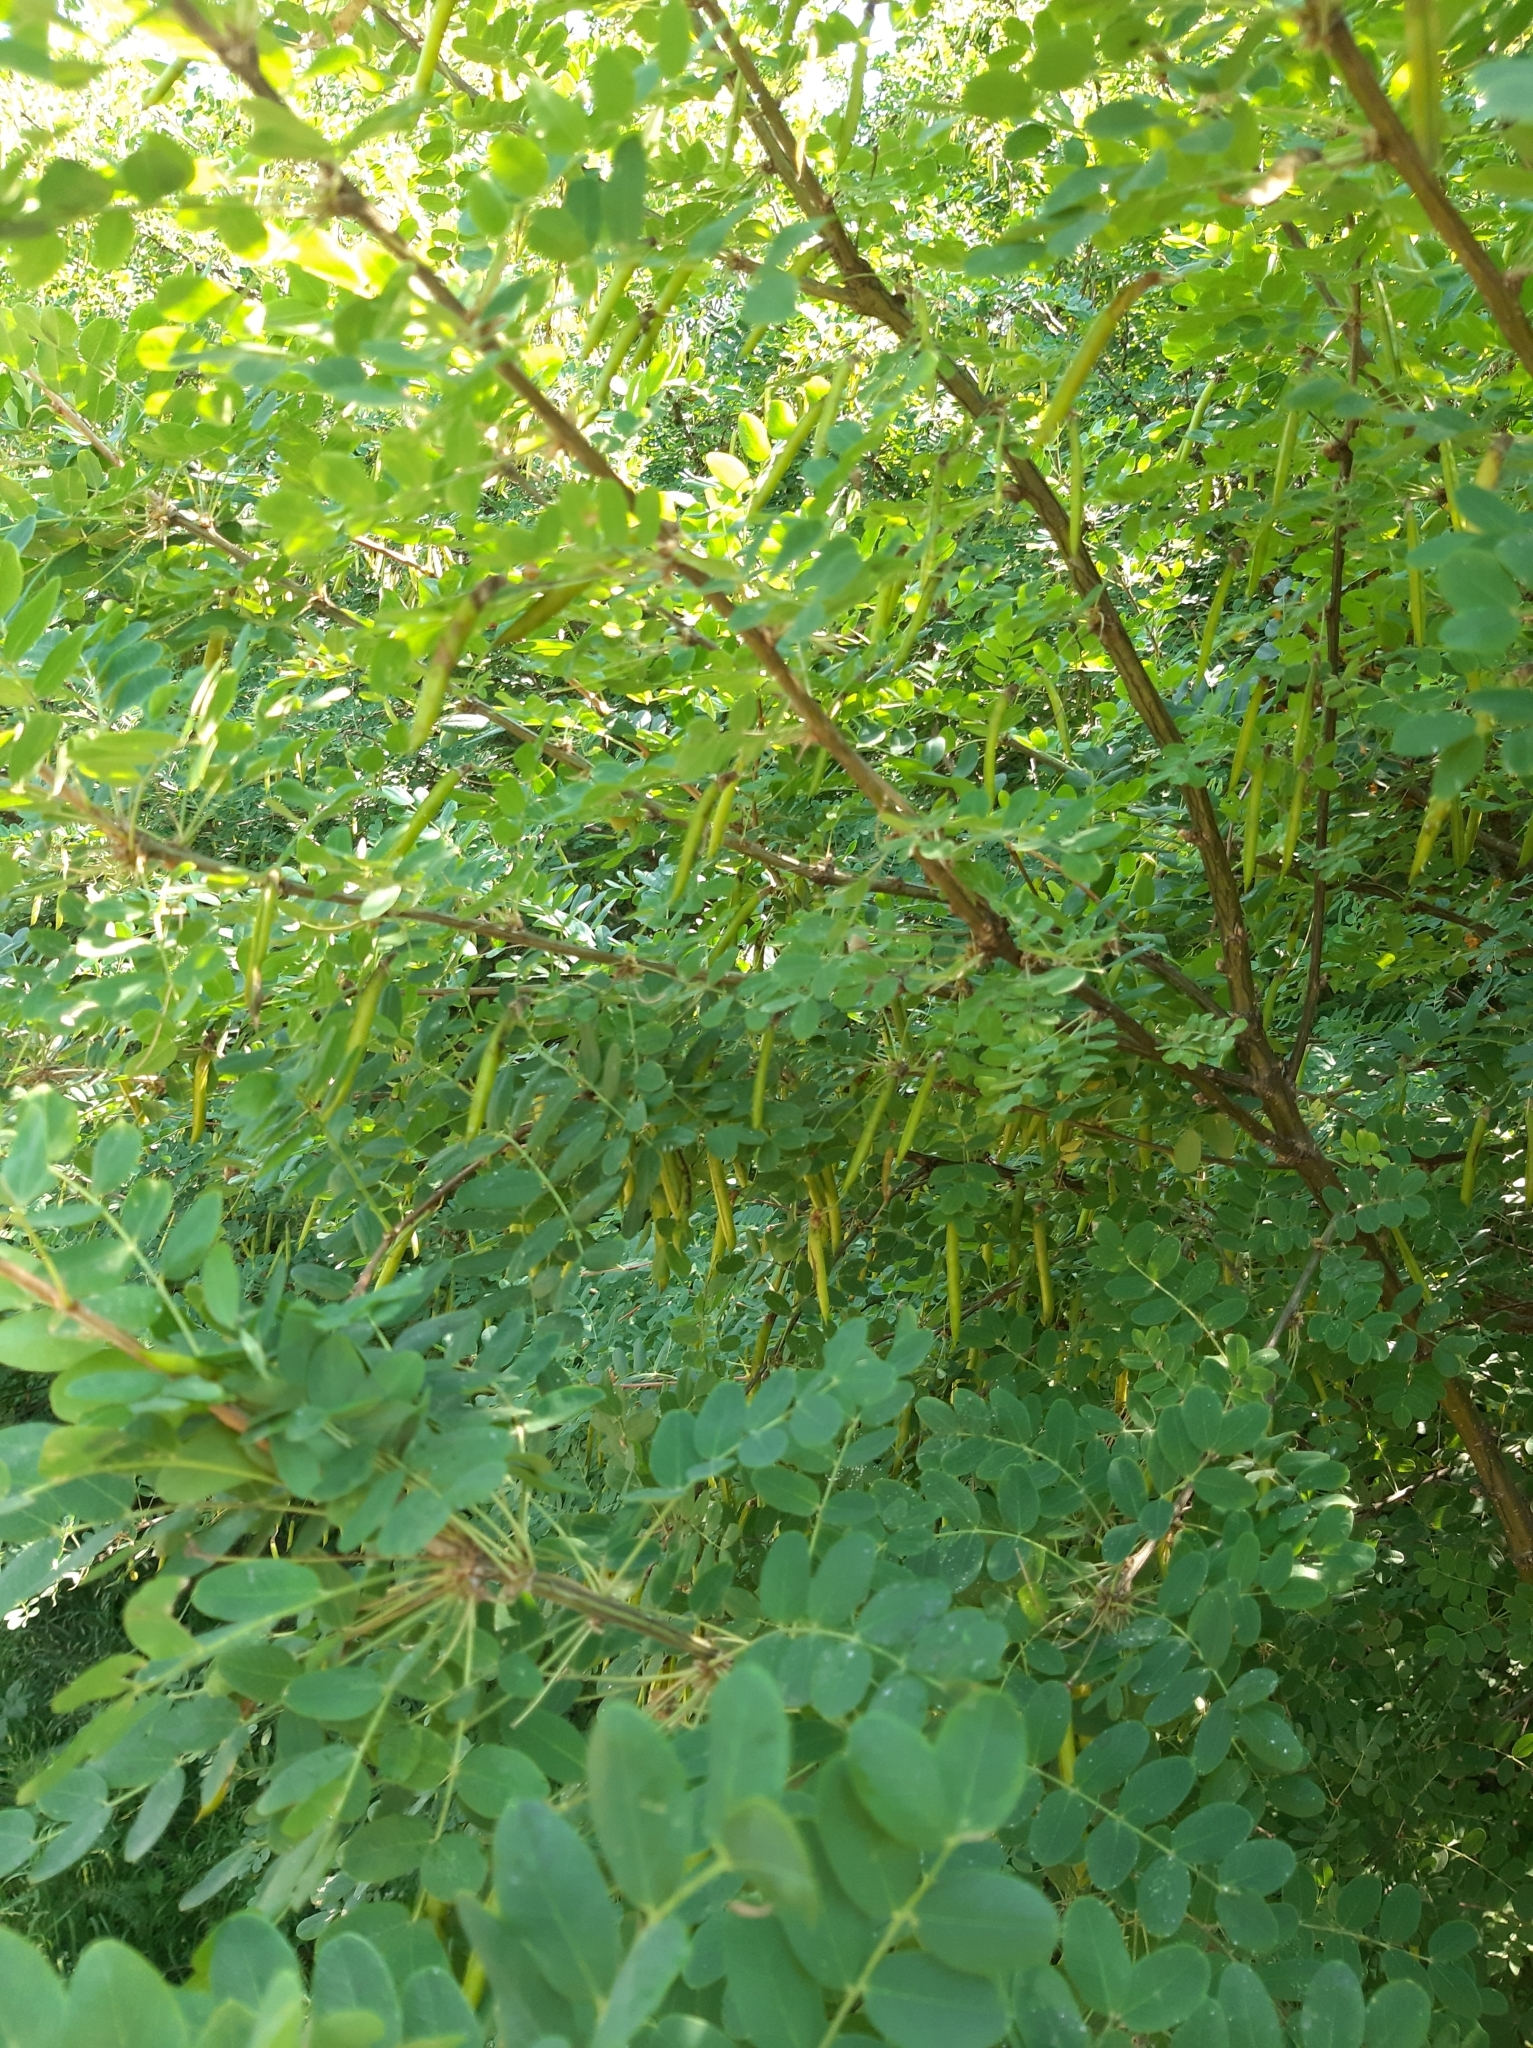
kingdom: Plantae
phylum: Tracheophyta
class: Magnoliopsida
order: Fabales
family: Fabaceae
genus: Caragana
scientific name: Caragana arborescens
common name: Siberian peashrub
